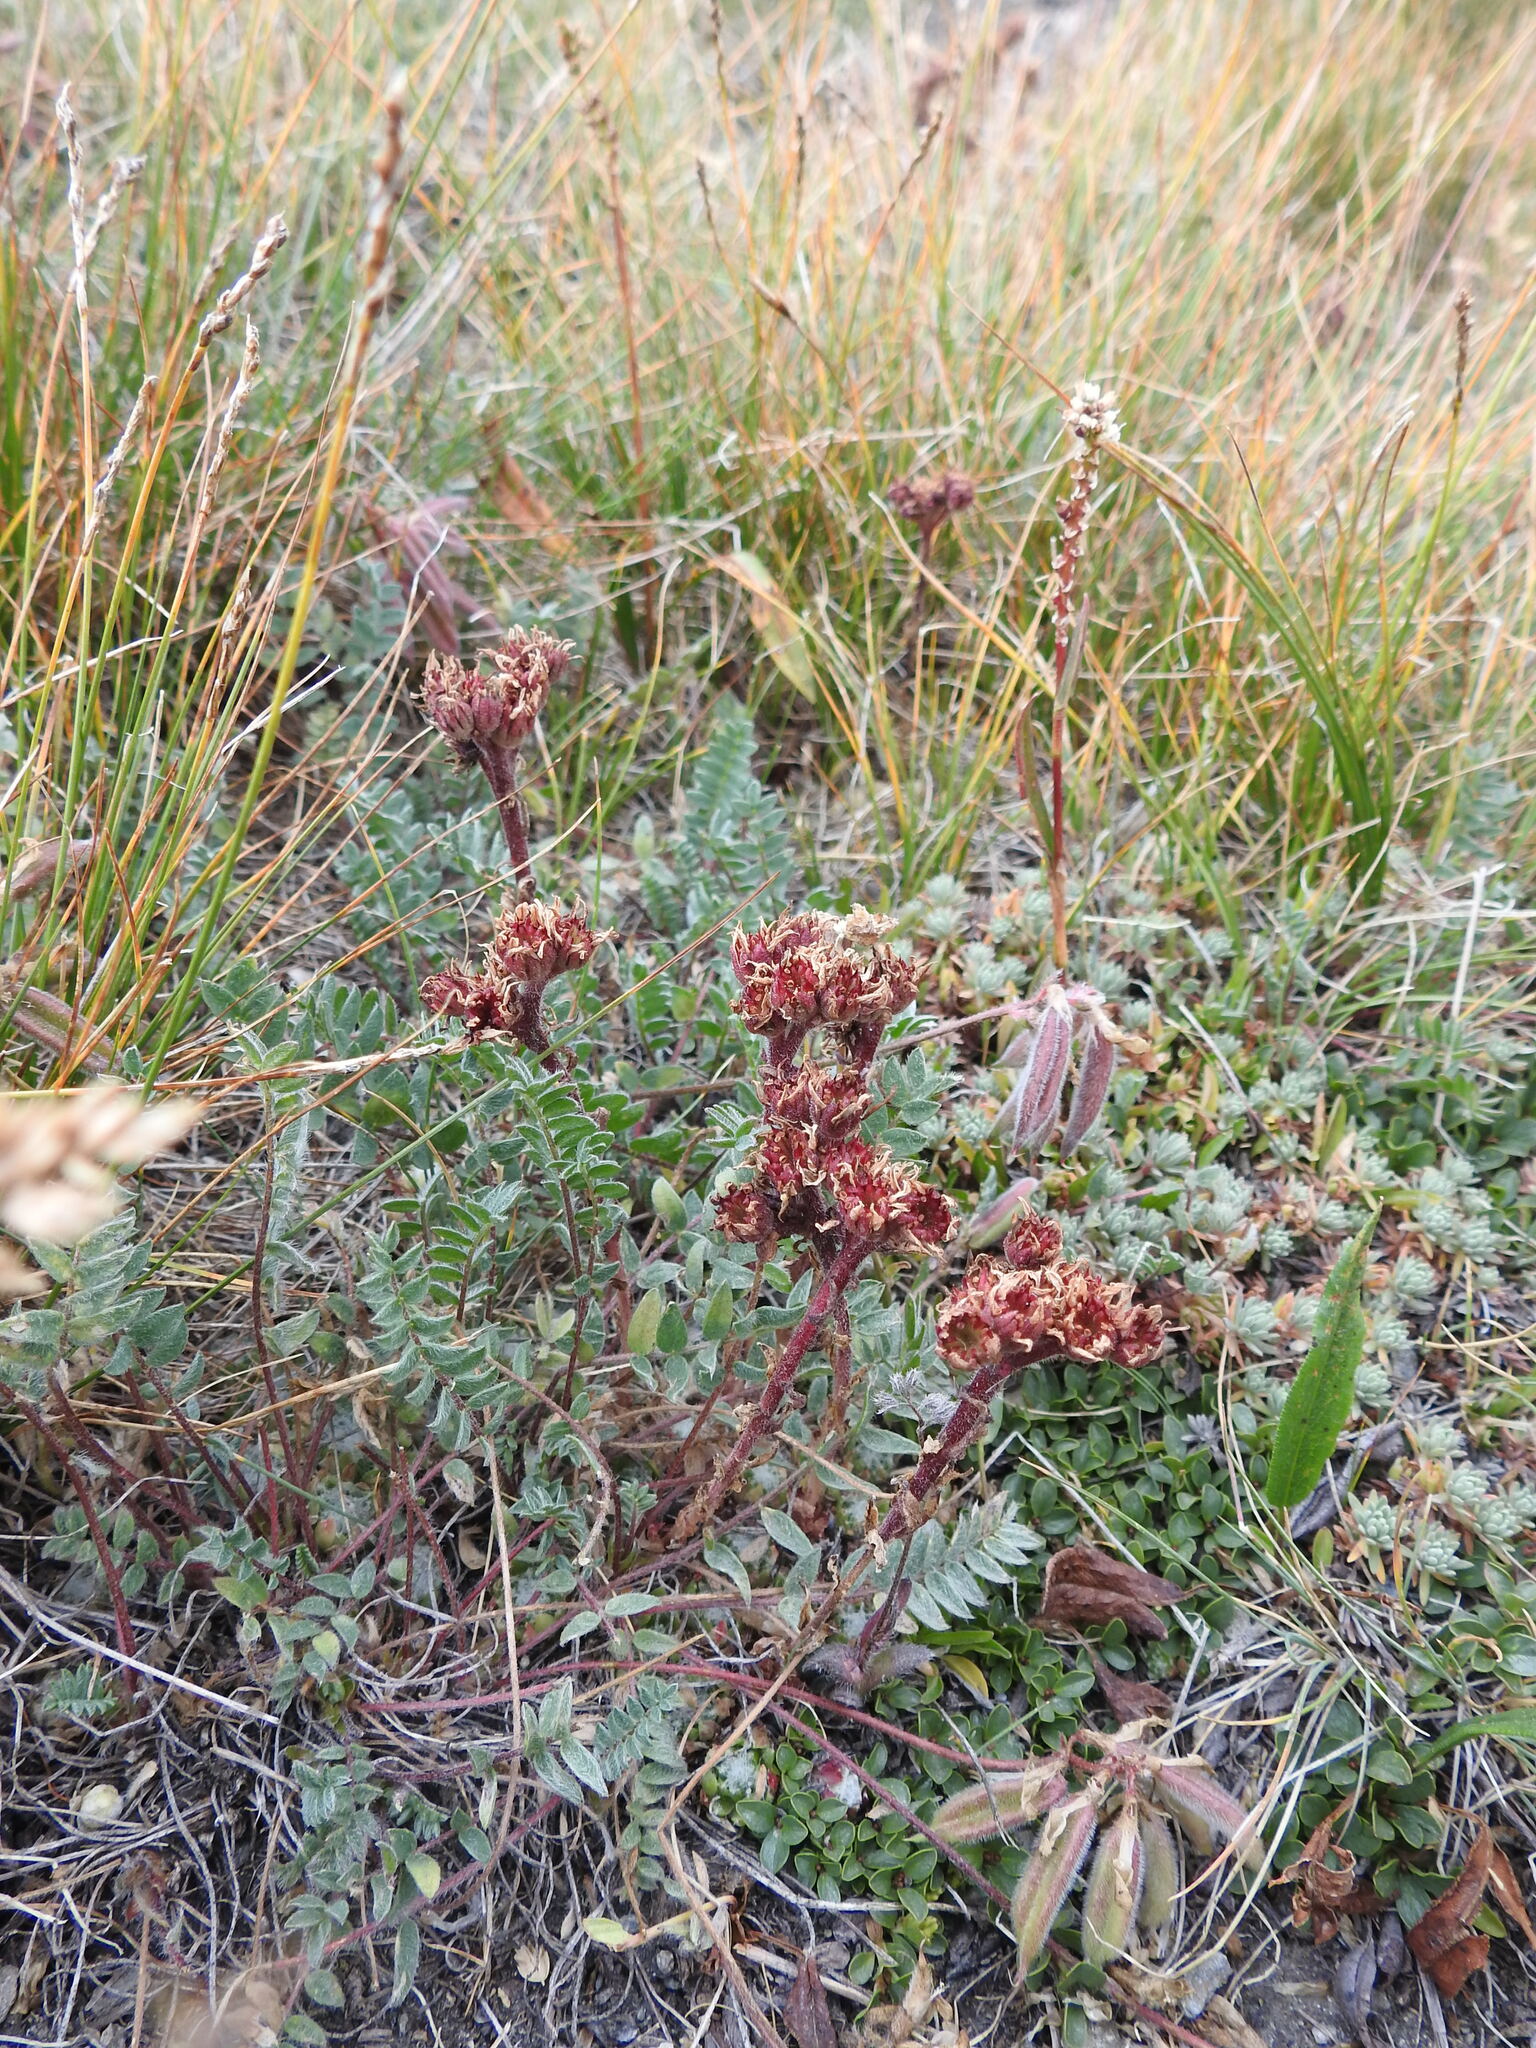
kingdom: Plantae
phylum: Tracheophyta
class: Magnoliopsida
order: Saxifragales
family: Crassulaceae
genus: Sempervivum
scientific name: Sempervivum arachnoideum
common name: Cobweb house-leek
